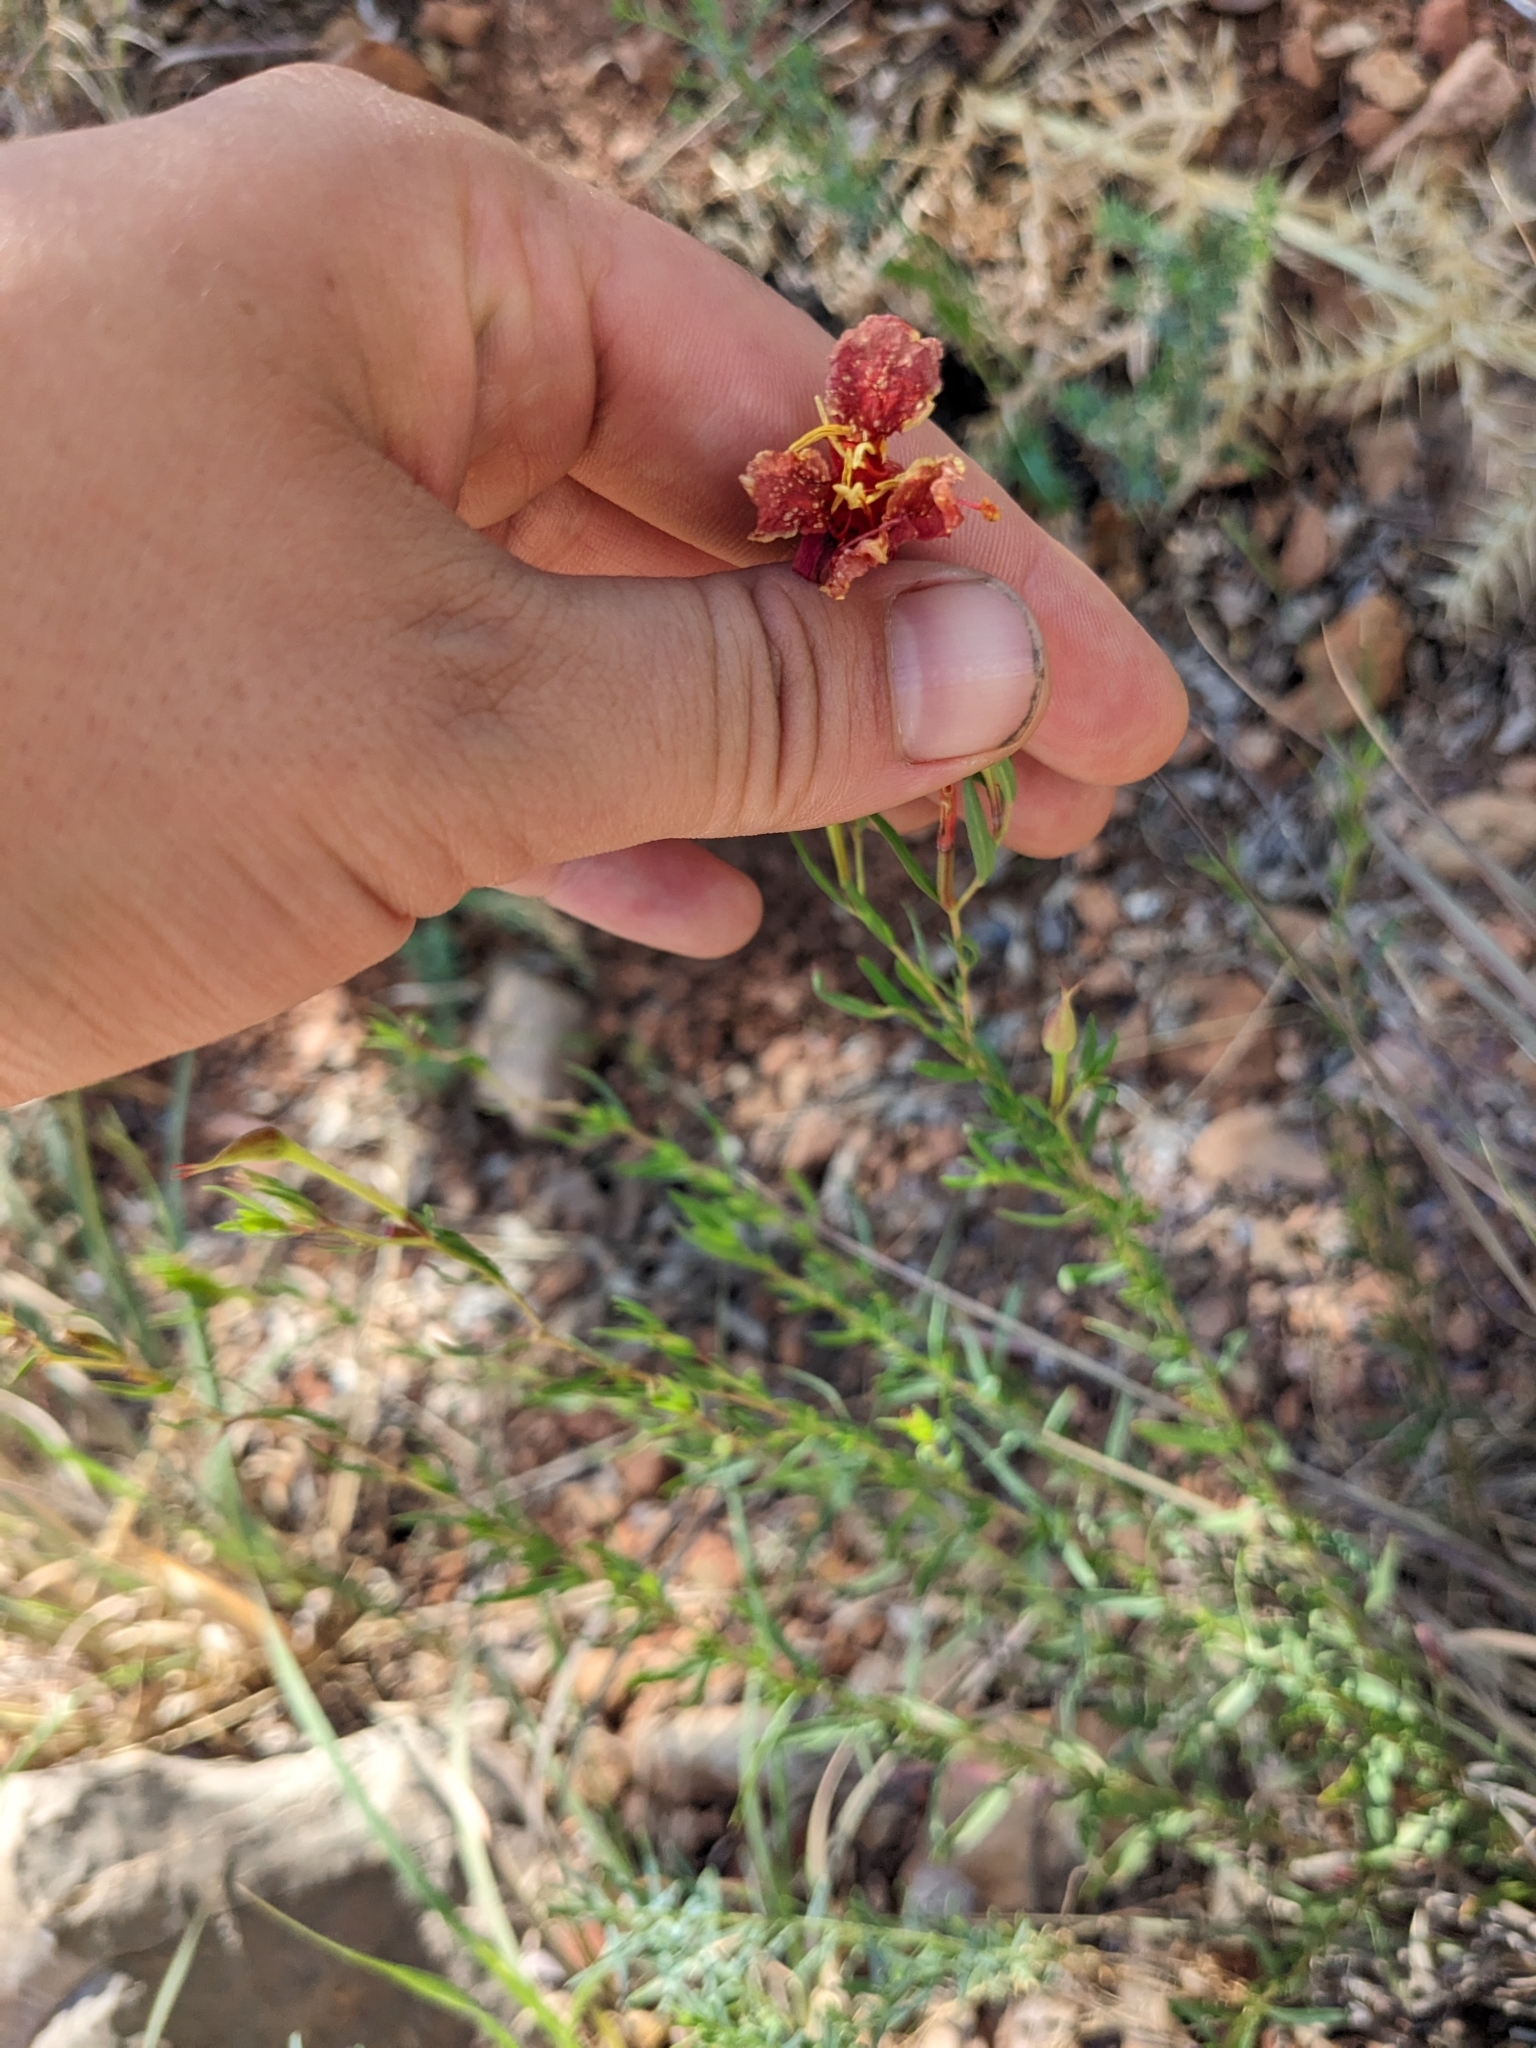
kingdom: Plantae
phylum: Tracheophyta
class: Magnoliopsida
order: Myrtales
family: Onagraceae
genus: Oenothera
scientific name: Oenothera toumeyi
